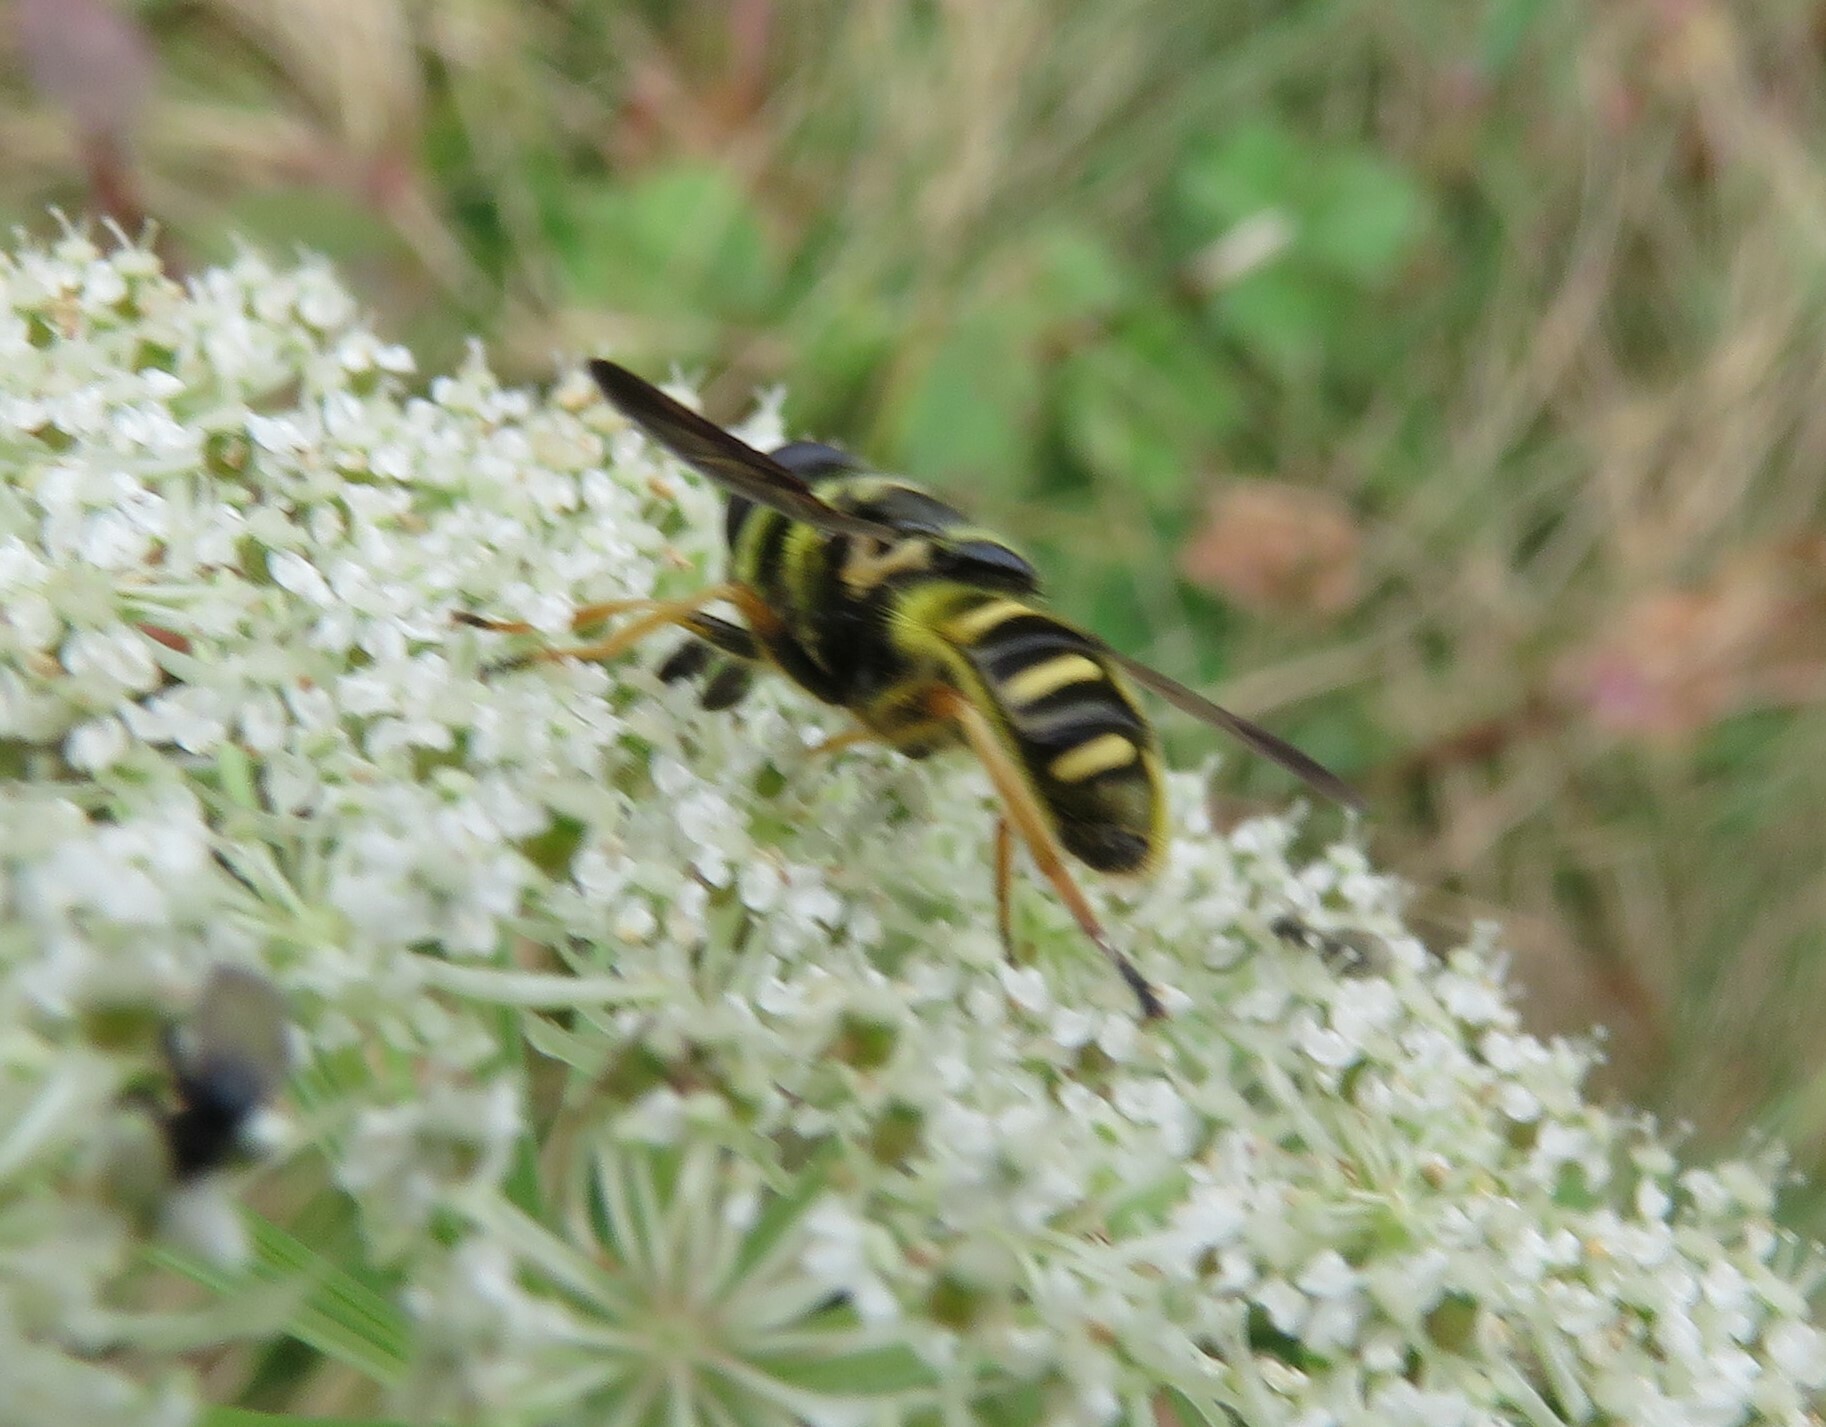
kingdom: Animalia
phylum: Arthropoda
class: Insecta
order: Diptera
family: Syrphidae
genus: Sericomyia
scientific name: Sericomyia chrysotoxoides
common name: Oblique-banded pond fly
